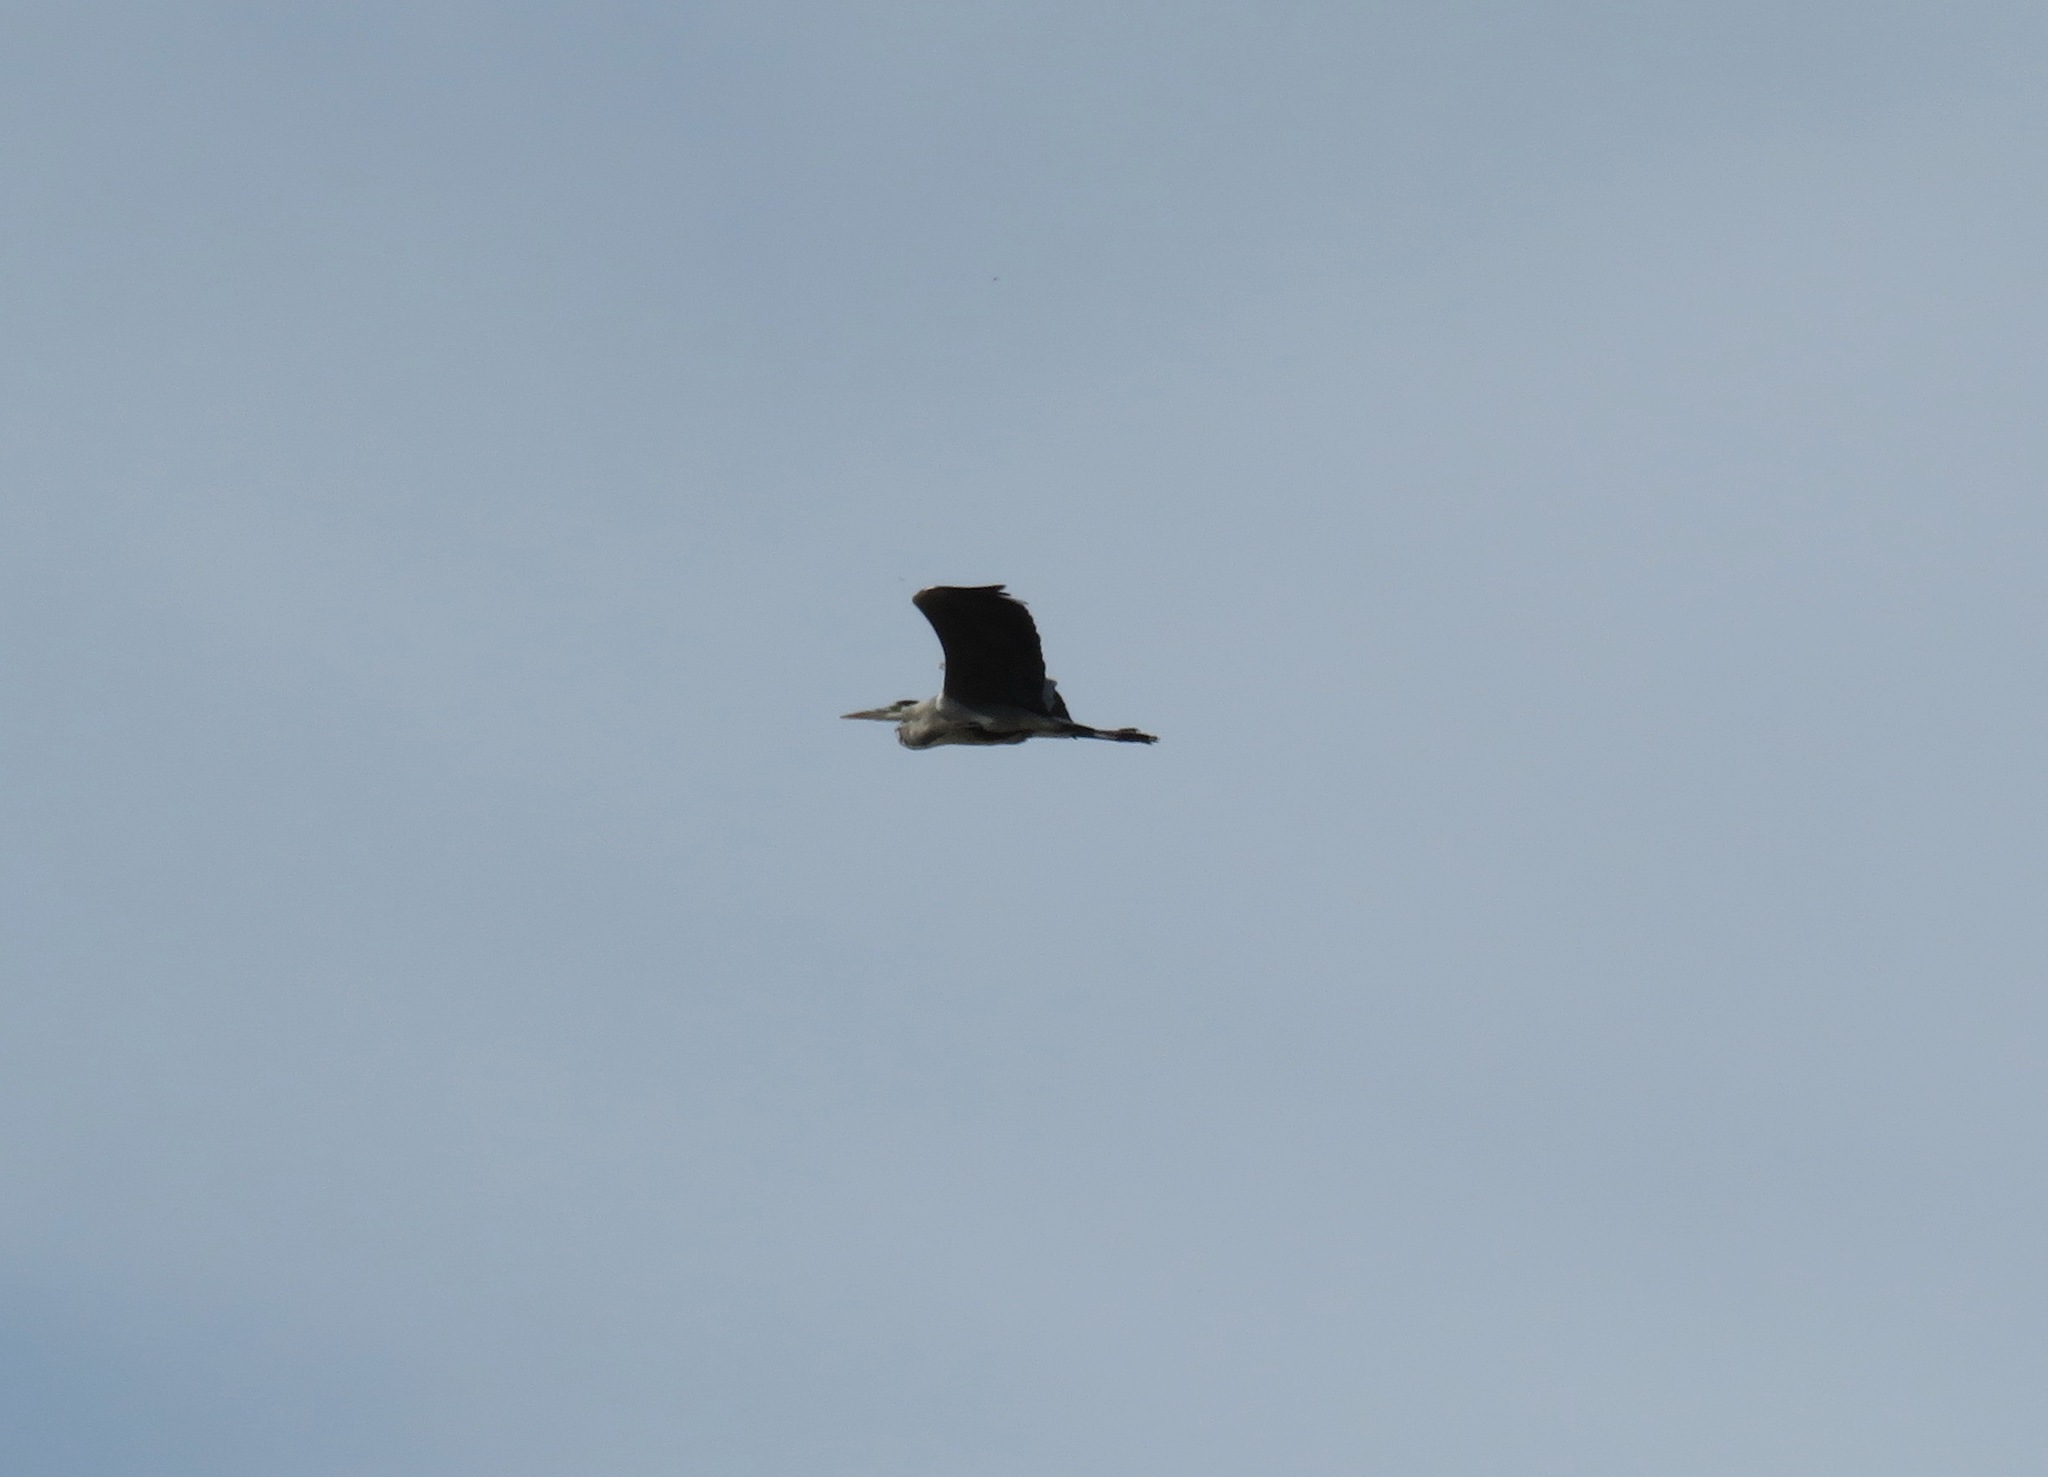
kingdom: Animalia
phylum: Chordata
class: Aves
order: Pelecaniformes
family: Ardeidae
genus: Ardea
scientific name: Ardea cinerea
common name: Grey heron
